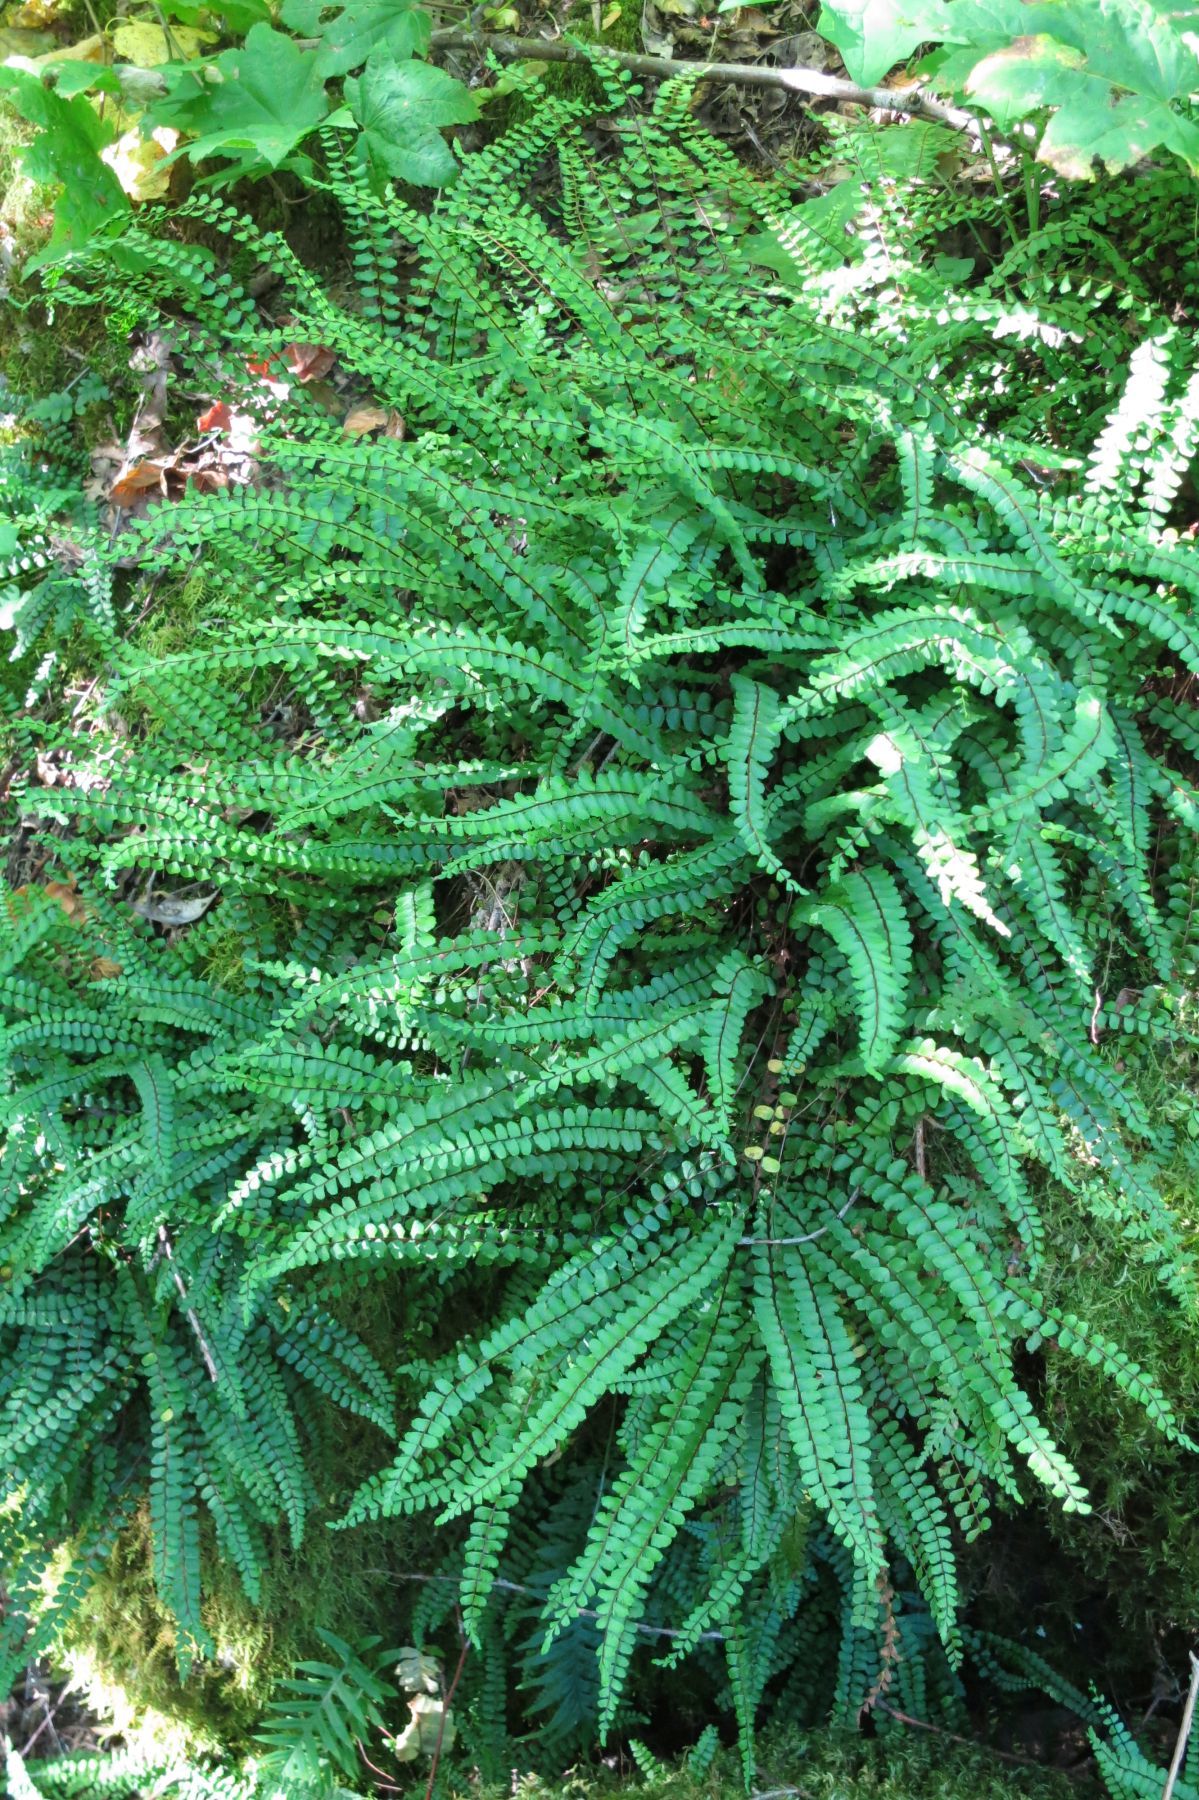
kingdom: Plantae
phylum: Tracheophyta
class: Polypodiopsida
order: Polypodiales
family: Aspleniaceae
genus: Asplenium
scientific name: Asplenium quadrivalens
